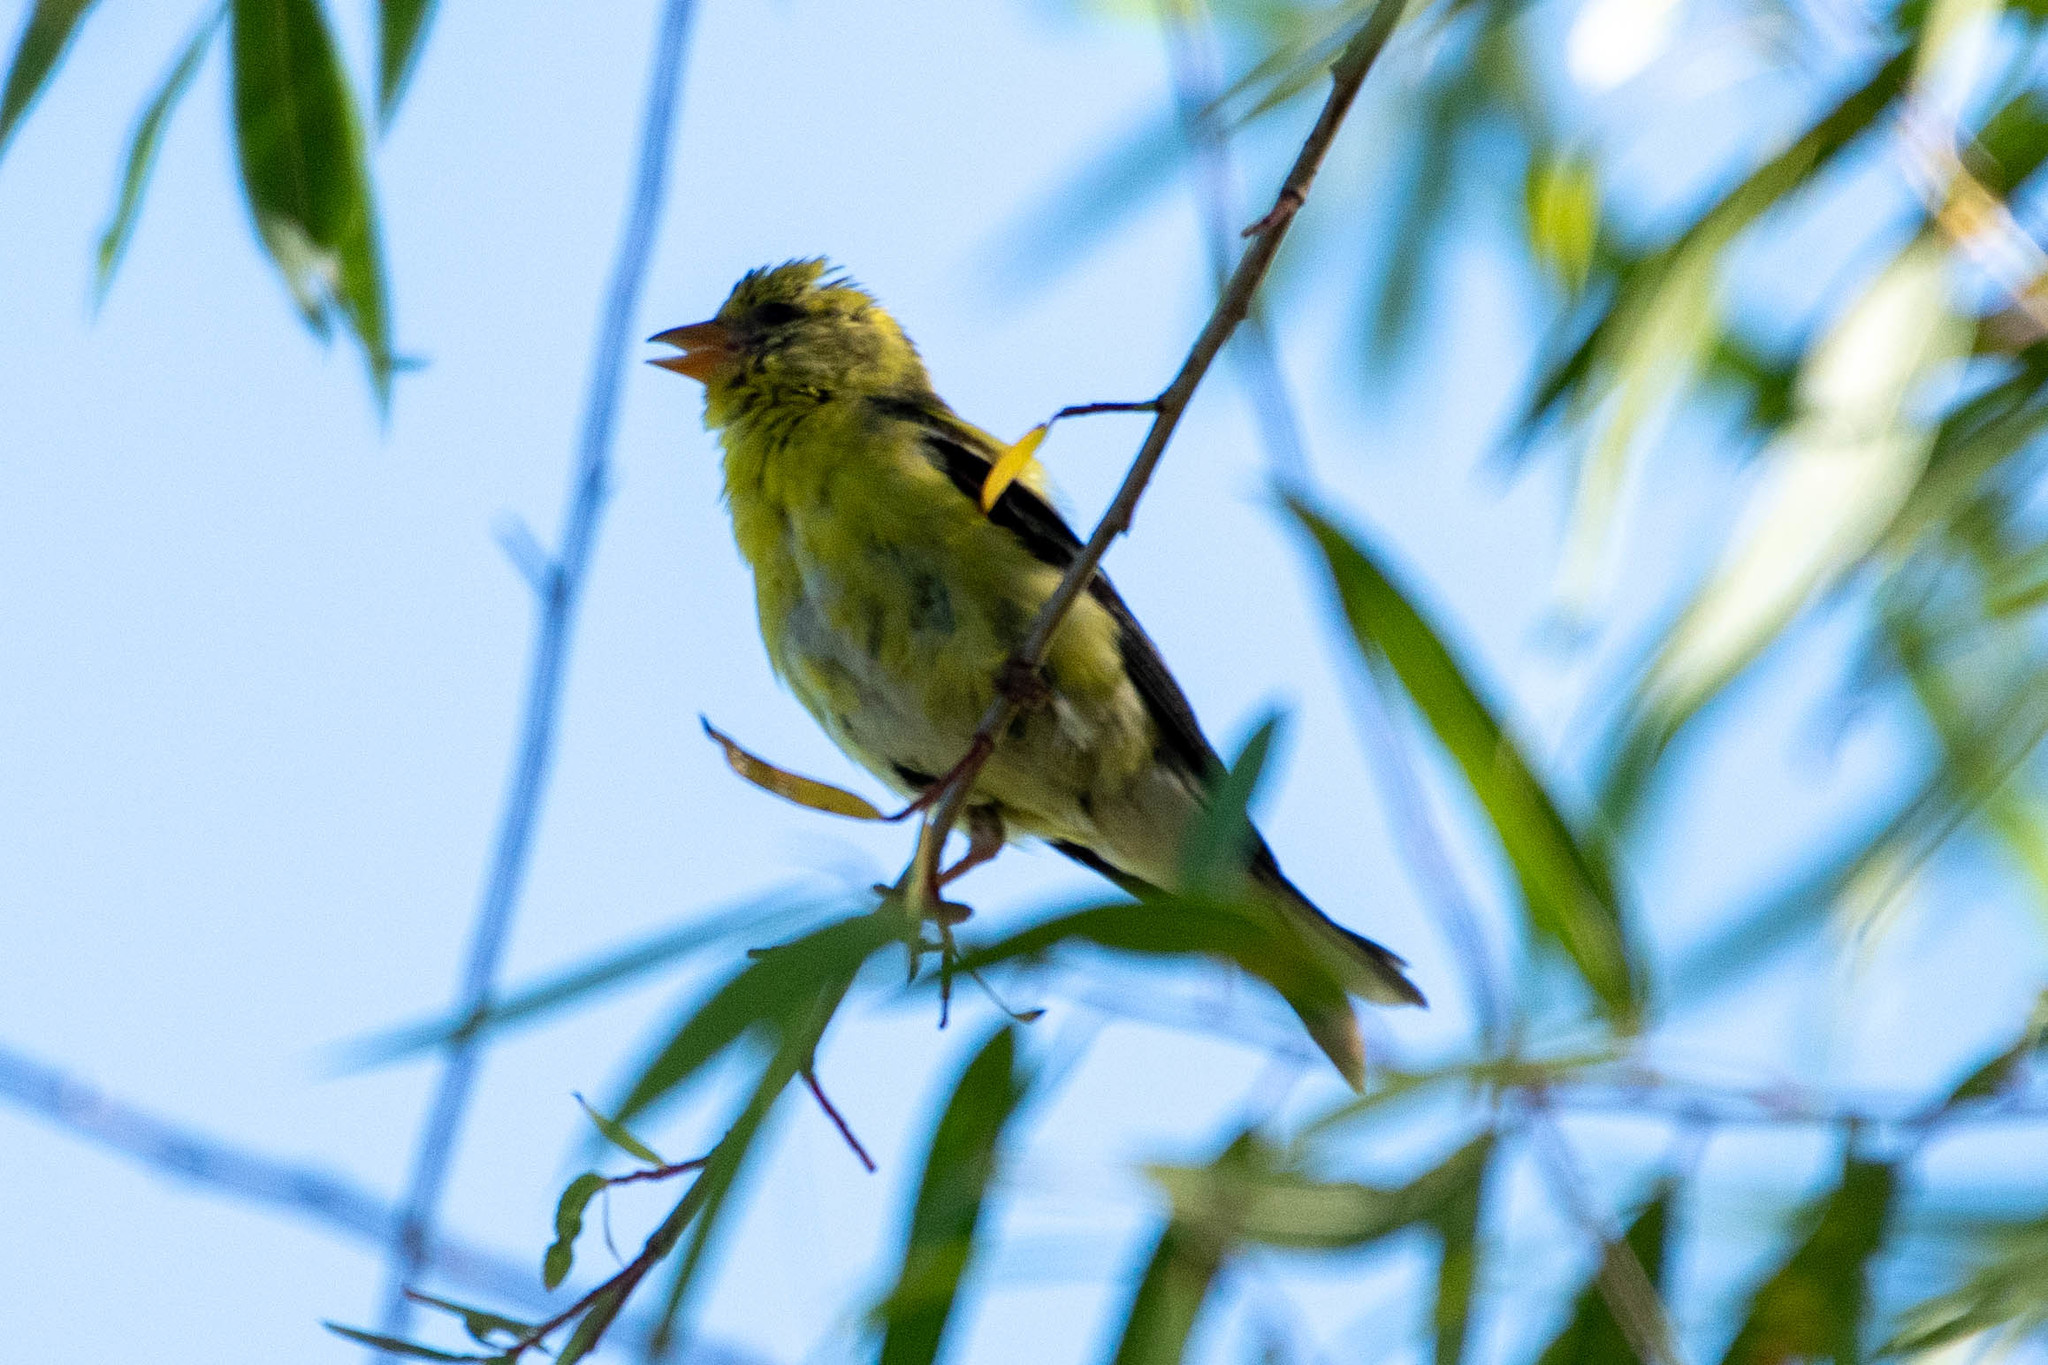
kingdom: Animalia
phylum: Chordata
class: Aves
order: Passeriformes
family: Fringillidae
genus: Spinus
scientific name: Spinus tristis
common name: American goldfinch
